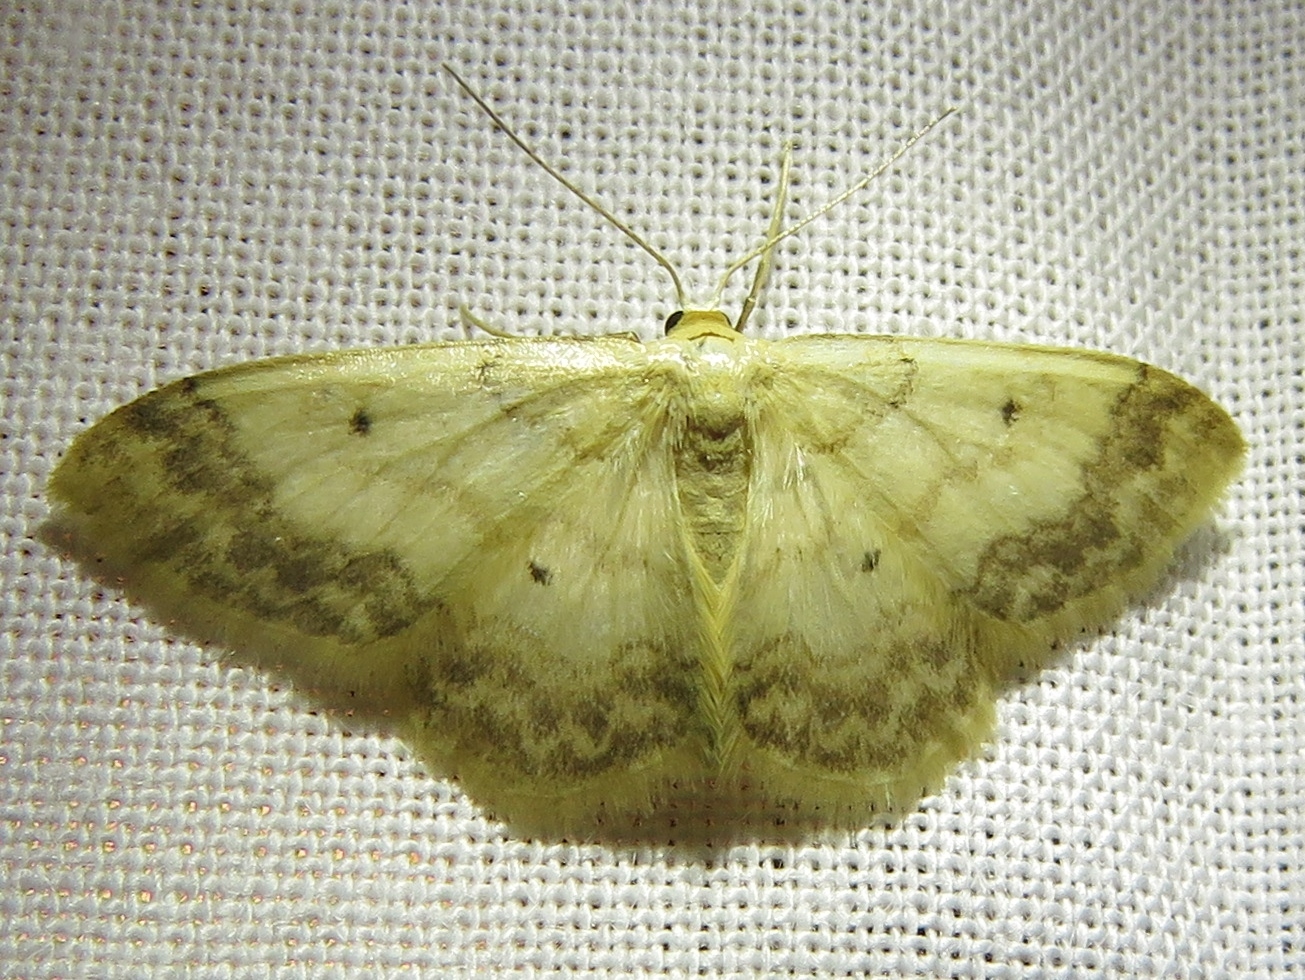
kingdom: Animalia
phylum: Arthropoda
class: Insecta
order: Lepidoptera
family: Geometridae
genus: Idaea
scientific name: Idaea biselata
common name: Small fan-footed wave
